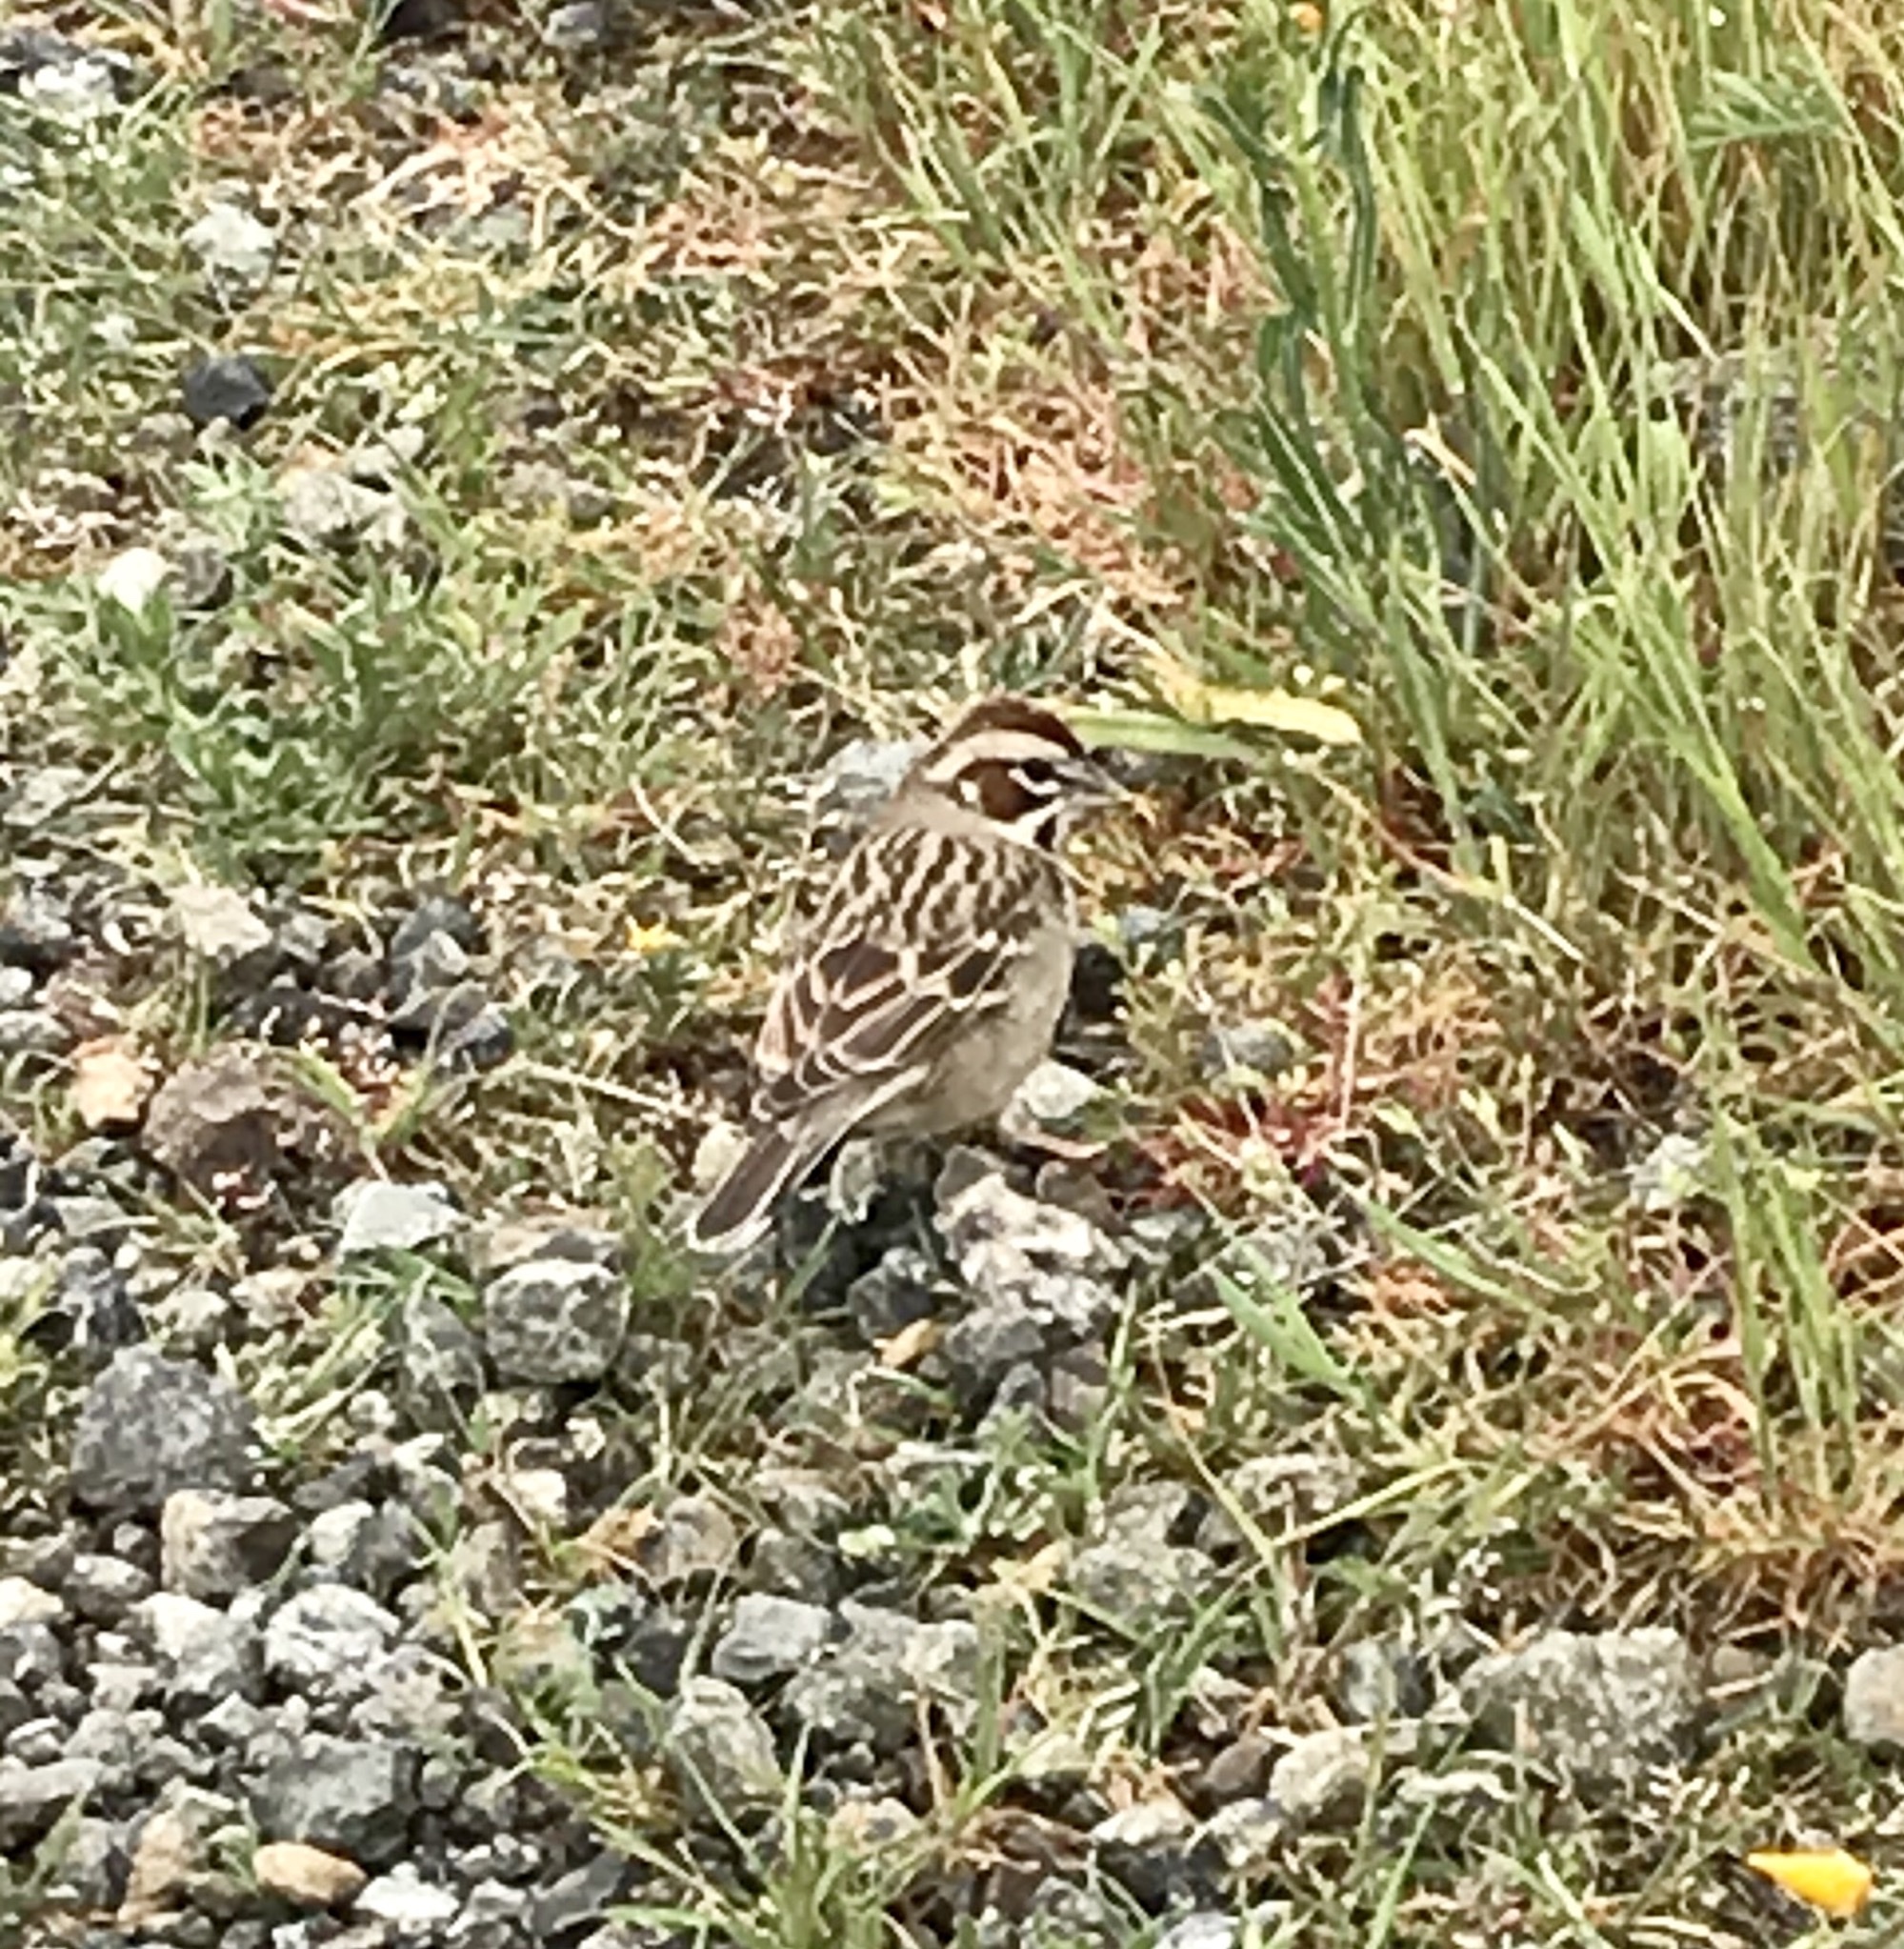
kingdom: Animalia
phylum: Chordata
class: Aves
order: Passeriformes
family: Passerellidae
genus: Chondestes
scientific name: Chondestes grammacus
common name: Lark sparrow
